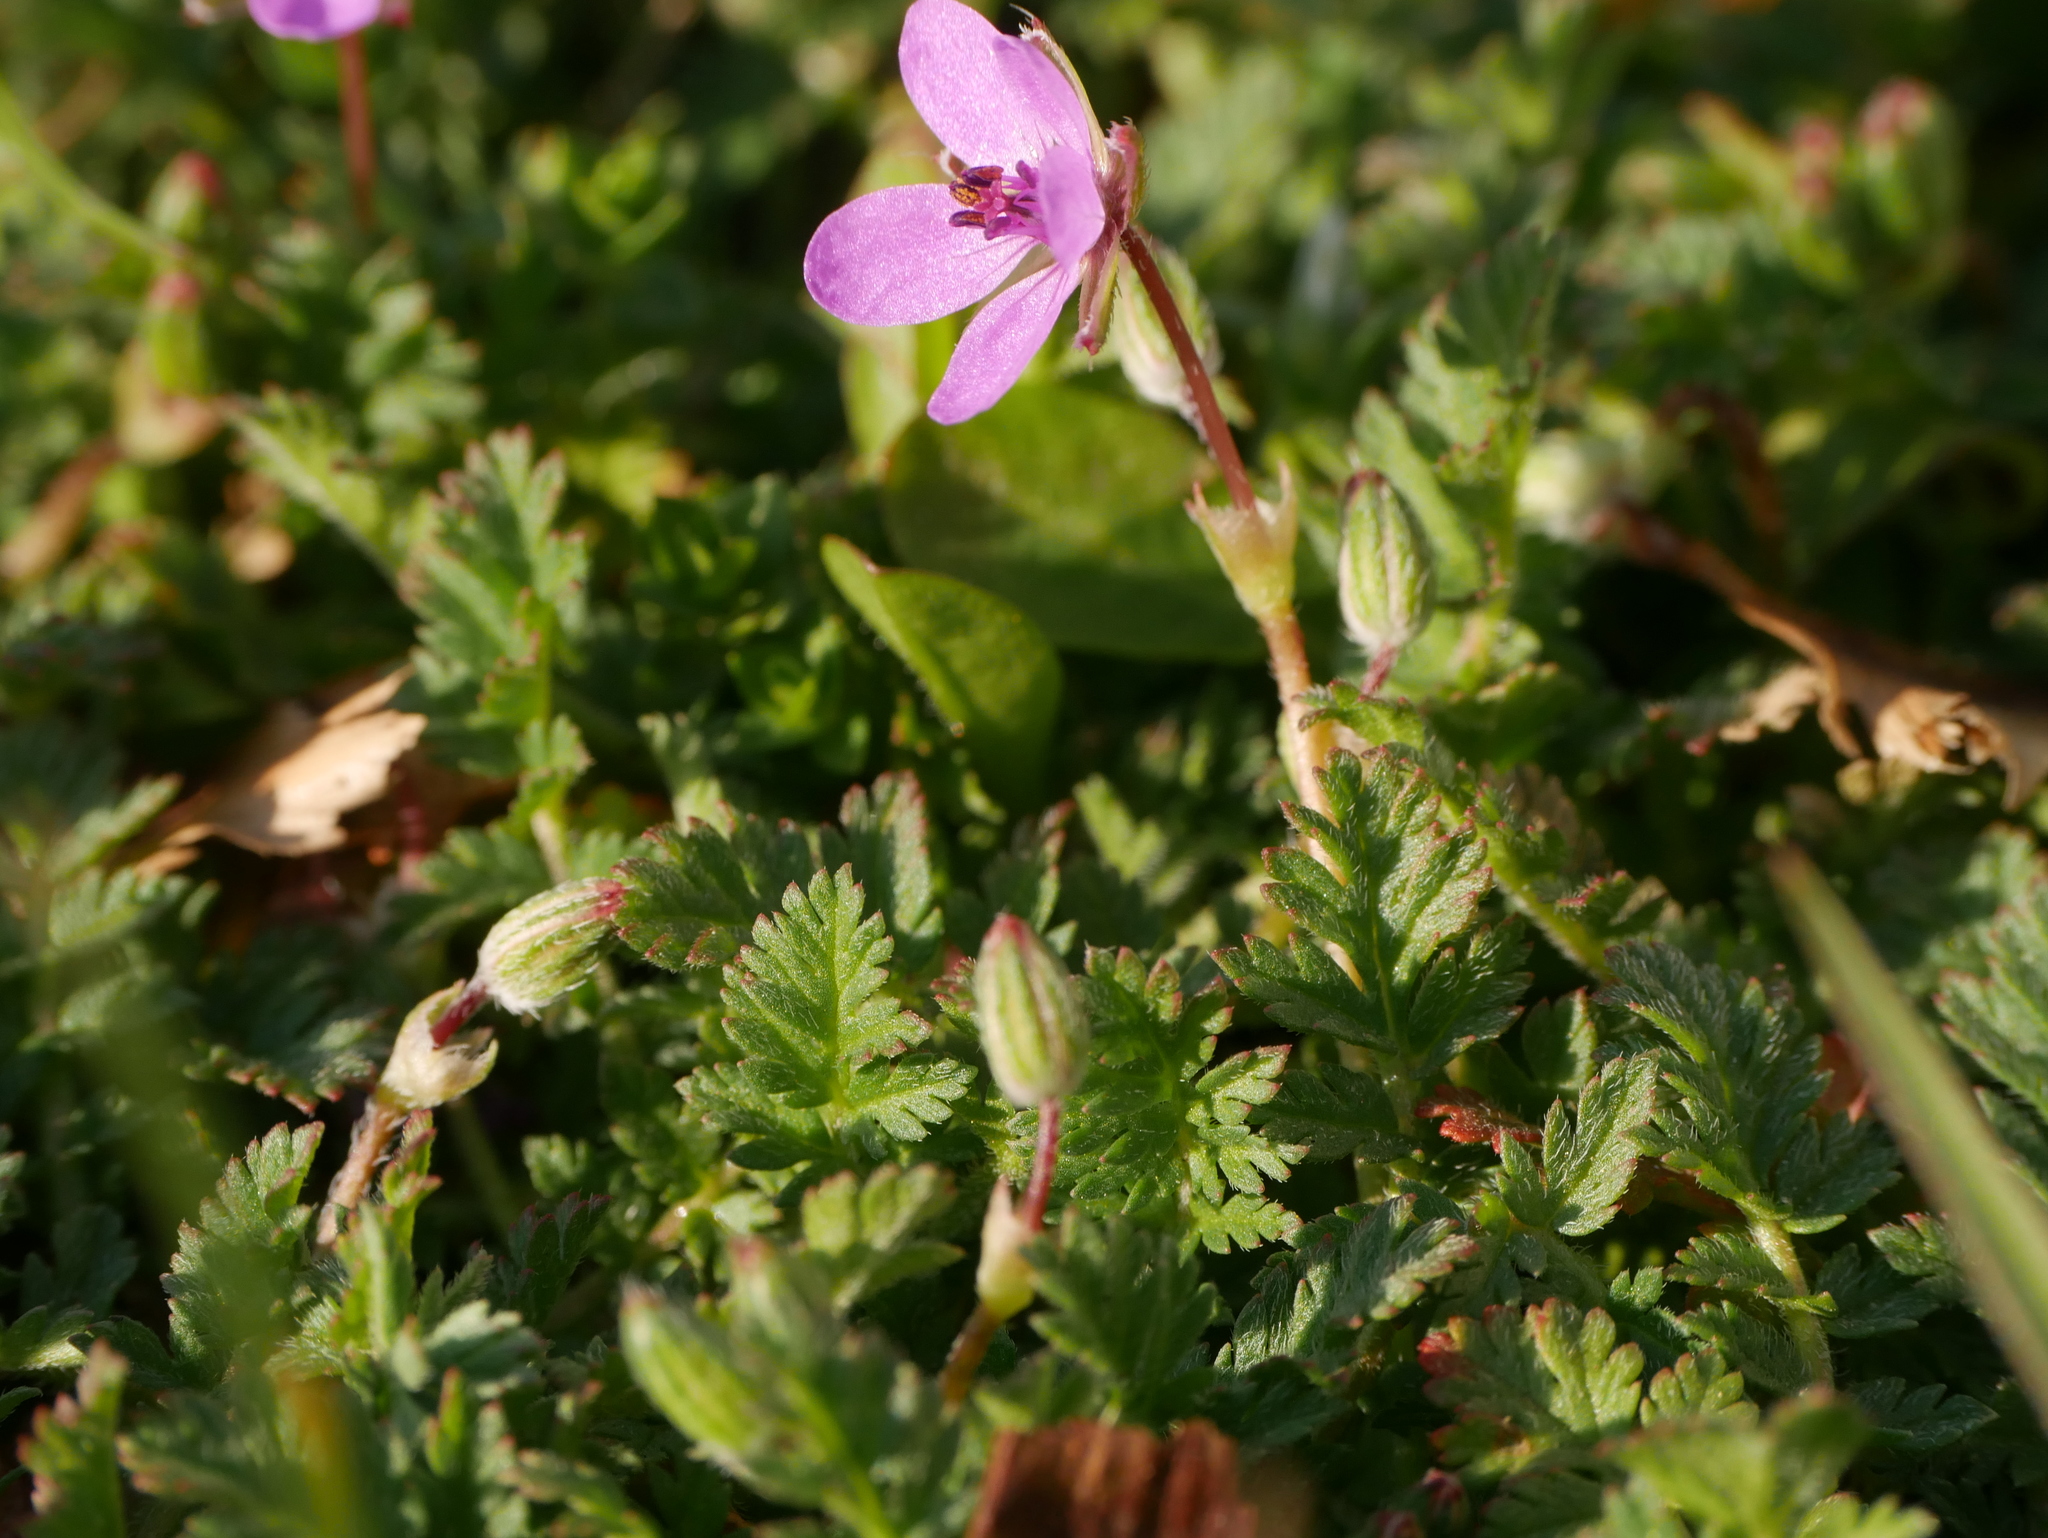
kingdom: Plantae
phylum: Tracheophyta
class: Magnoliopsida
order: Geraniales
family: Geraniaceae
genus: Erodium
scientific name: Erodium cicutarium
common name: Common stork's-bill
